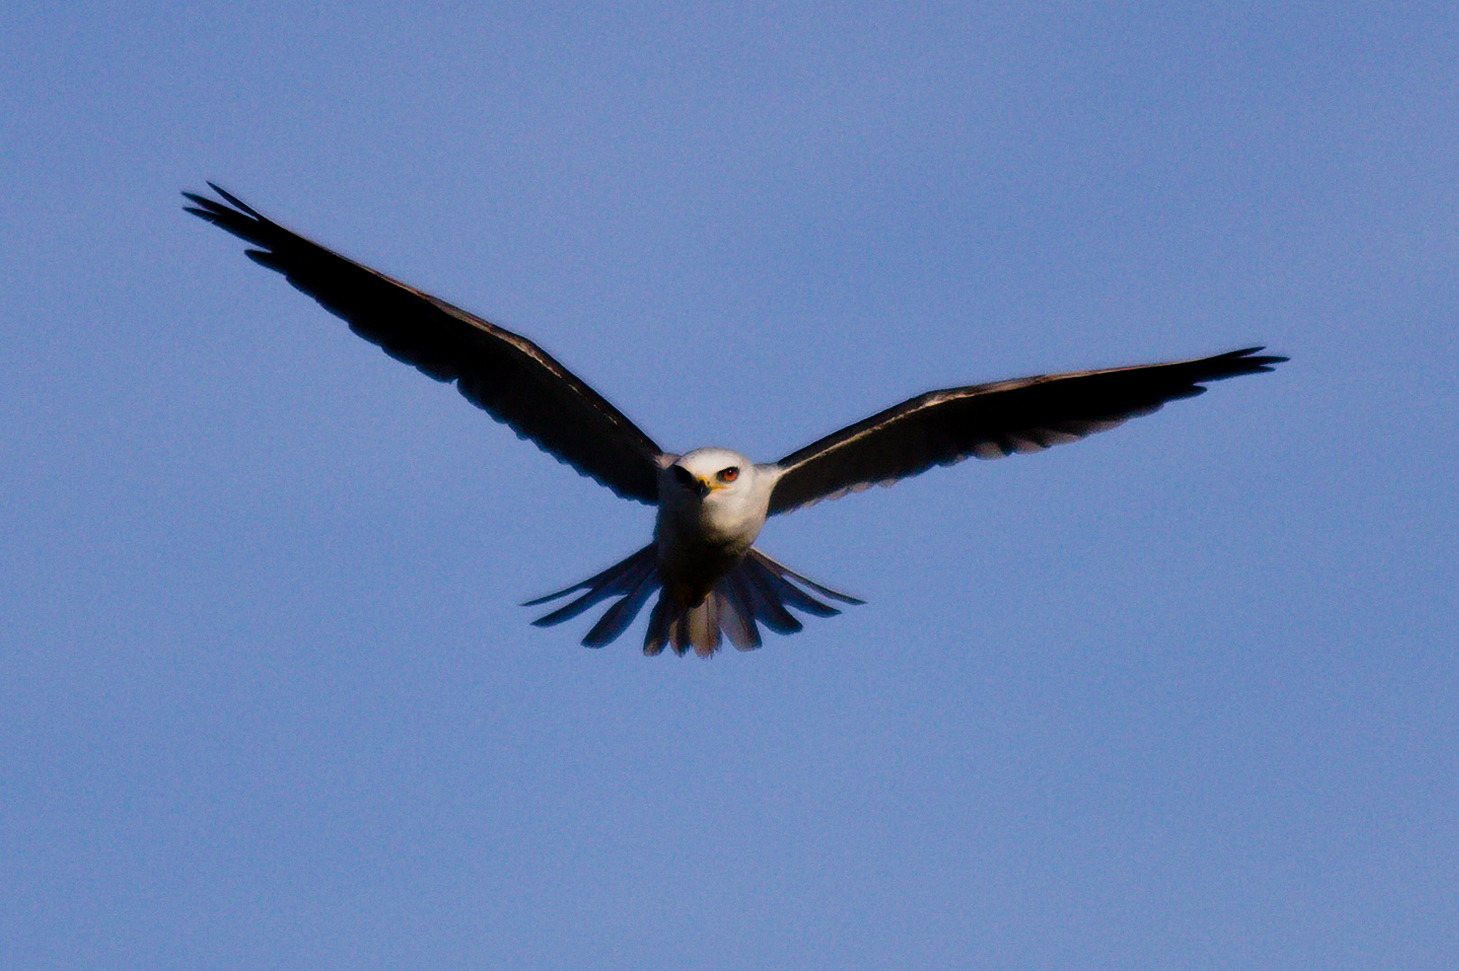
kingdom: Animalia
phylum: Chordata
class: Aves
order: Accipitriformes
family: Accipitridae
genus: Elanus
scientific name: Elanus leucurus
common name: White-tailed kite
